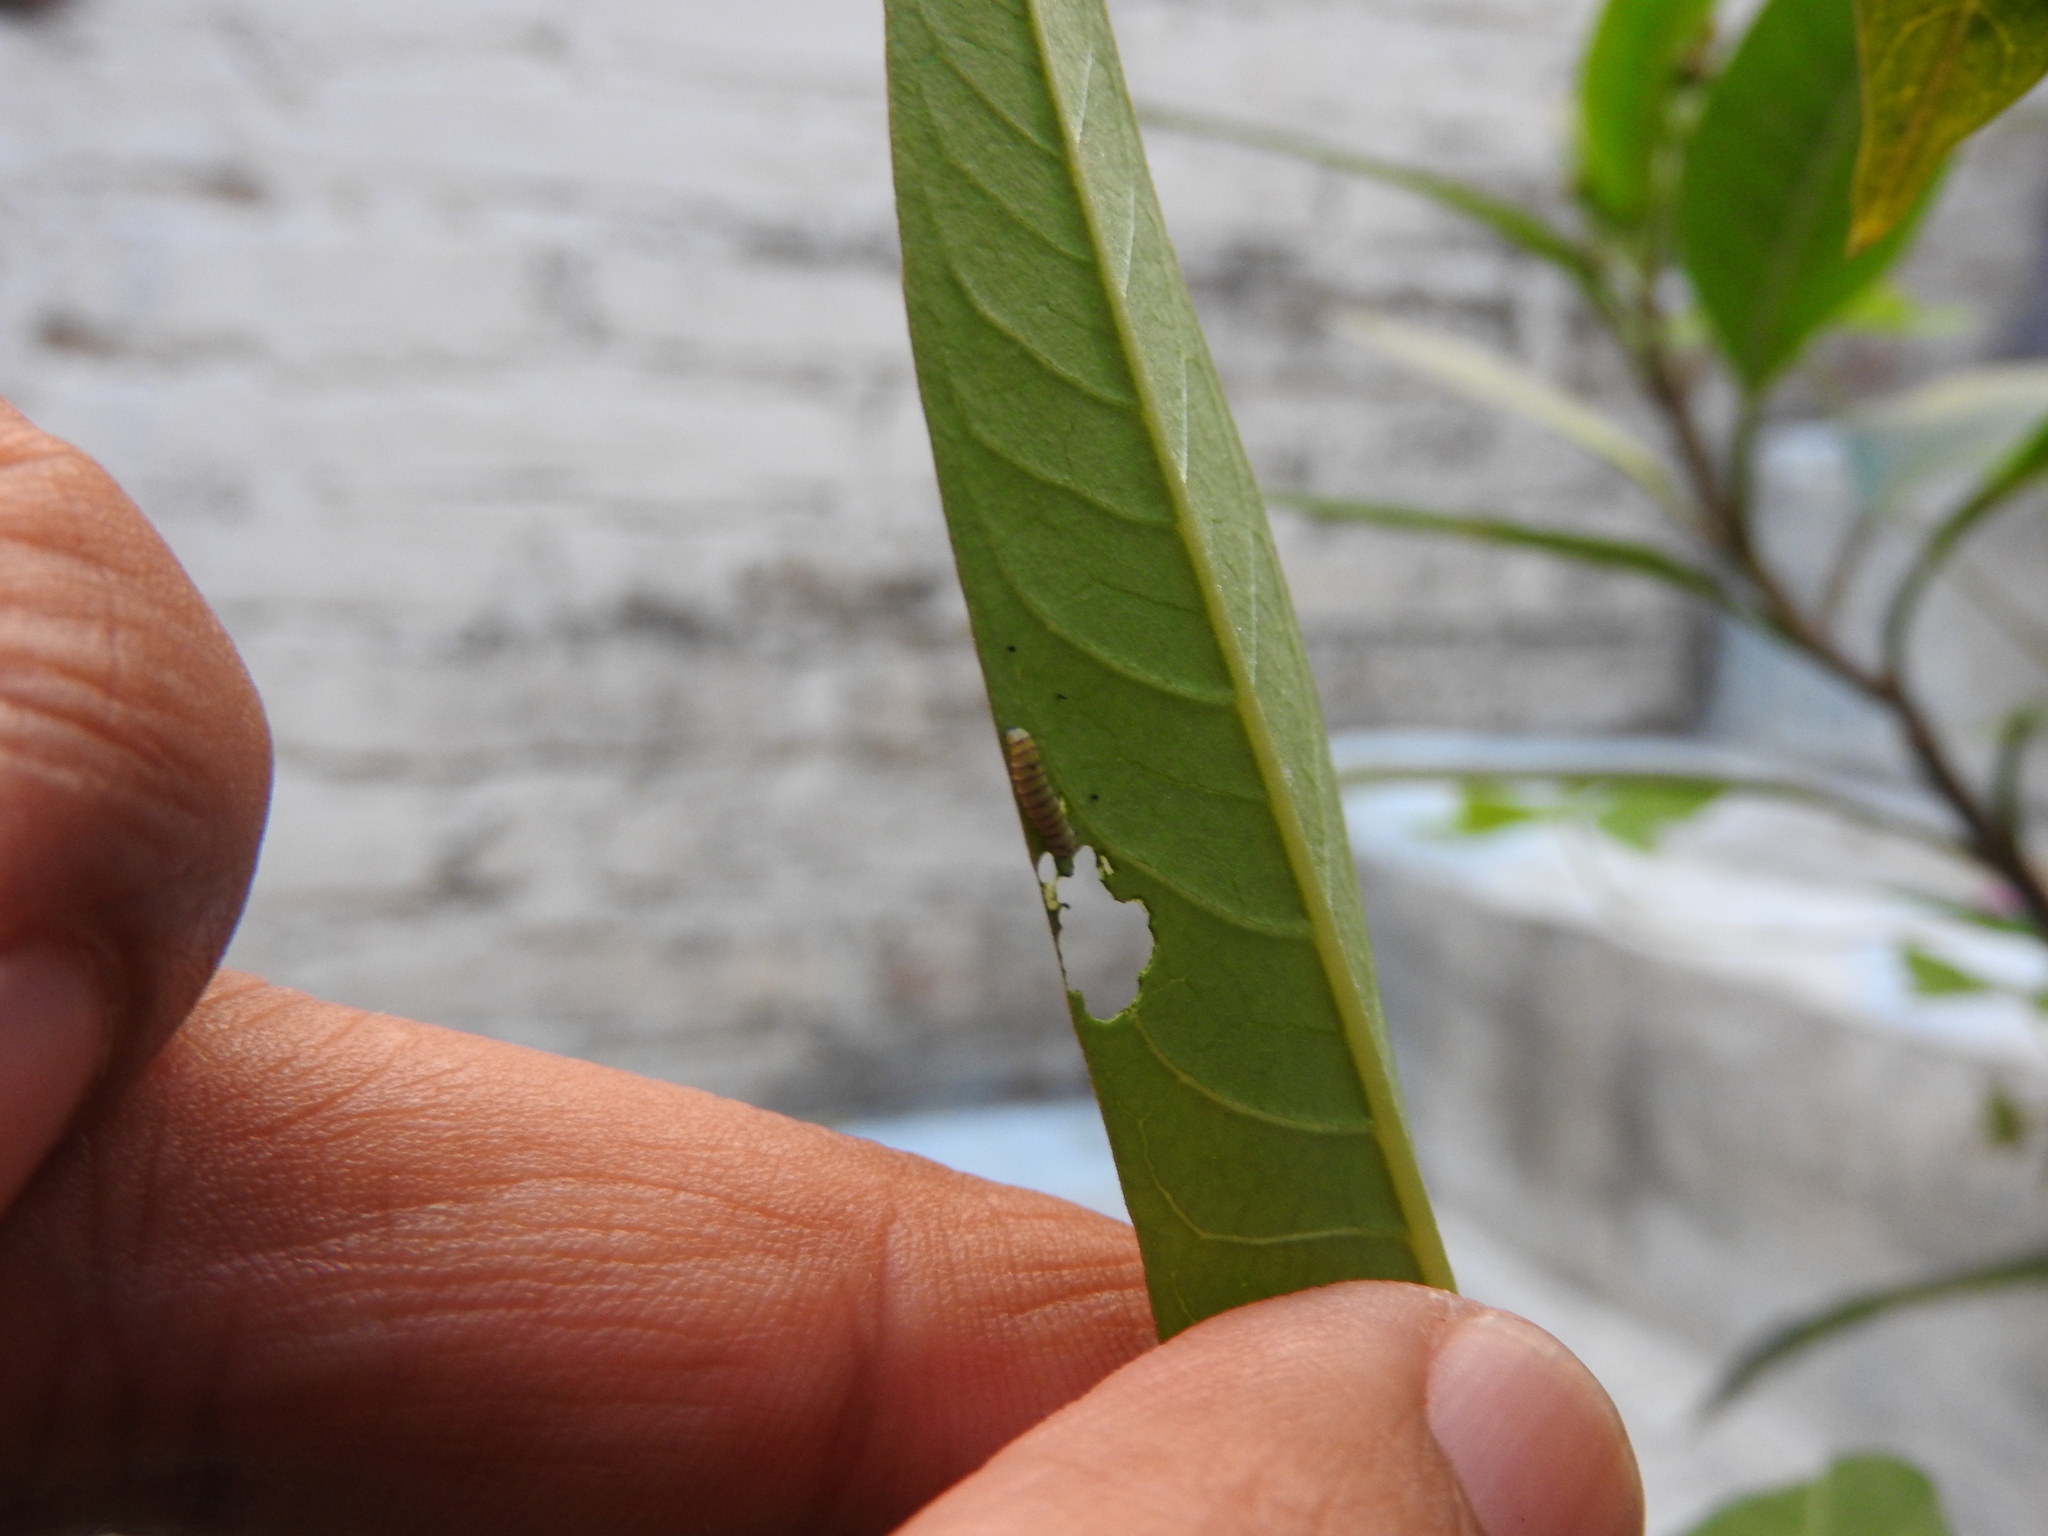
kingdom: Animalia
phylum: Arthropoda
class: Insecta
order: Lepidoptera
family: Nymphalidae
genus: Danaus
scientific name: Danaus plexippus
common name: Monarch
